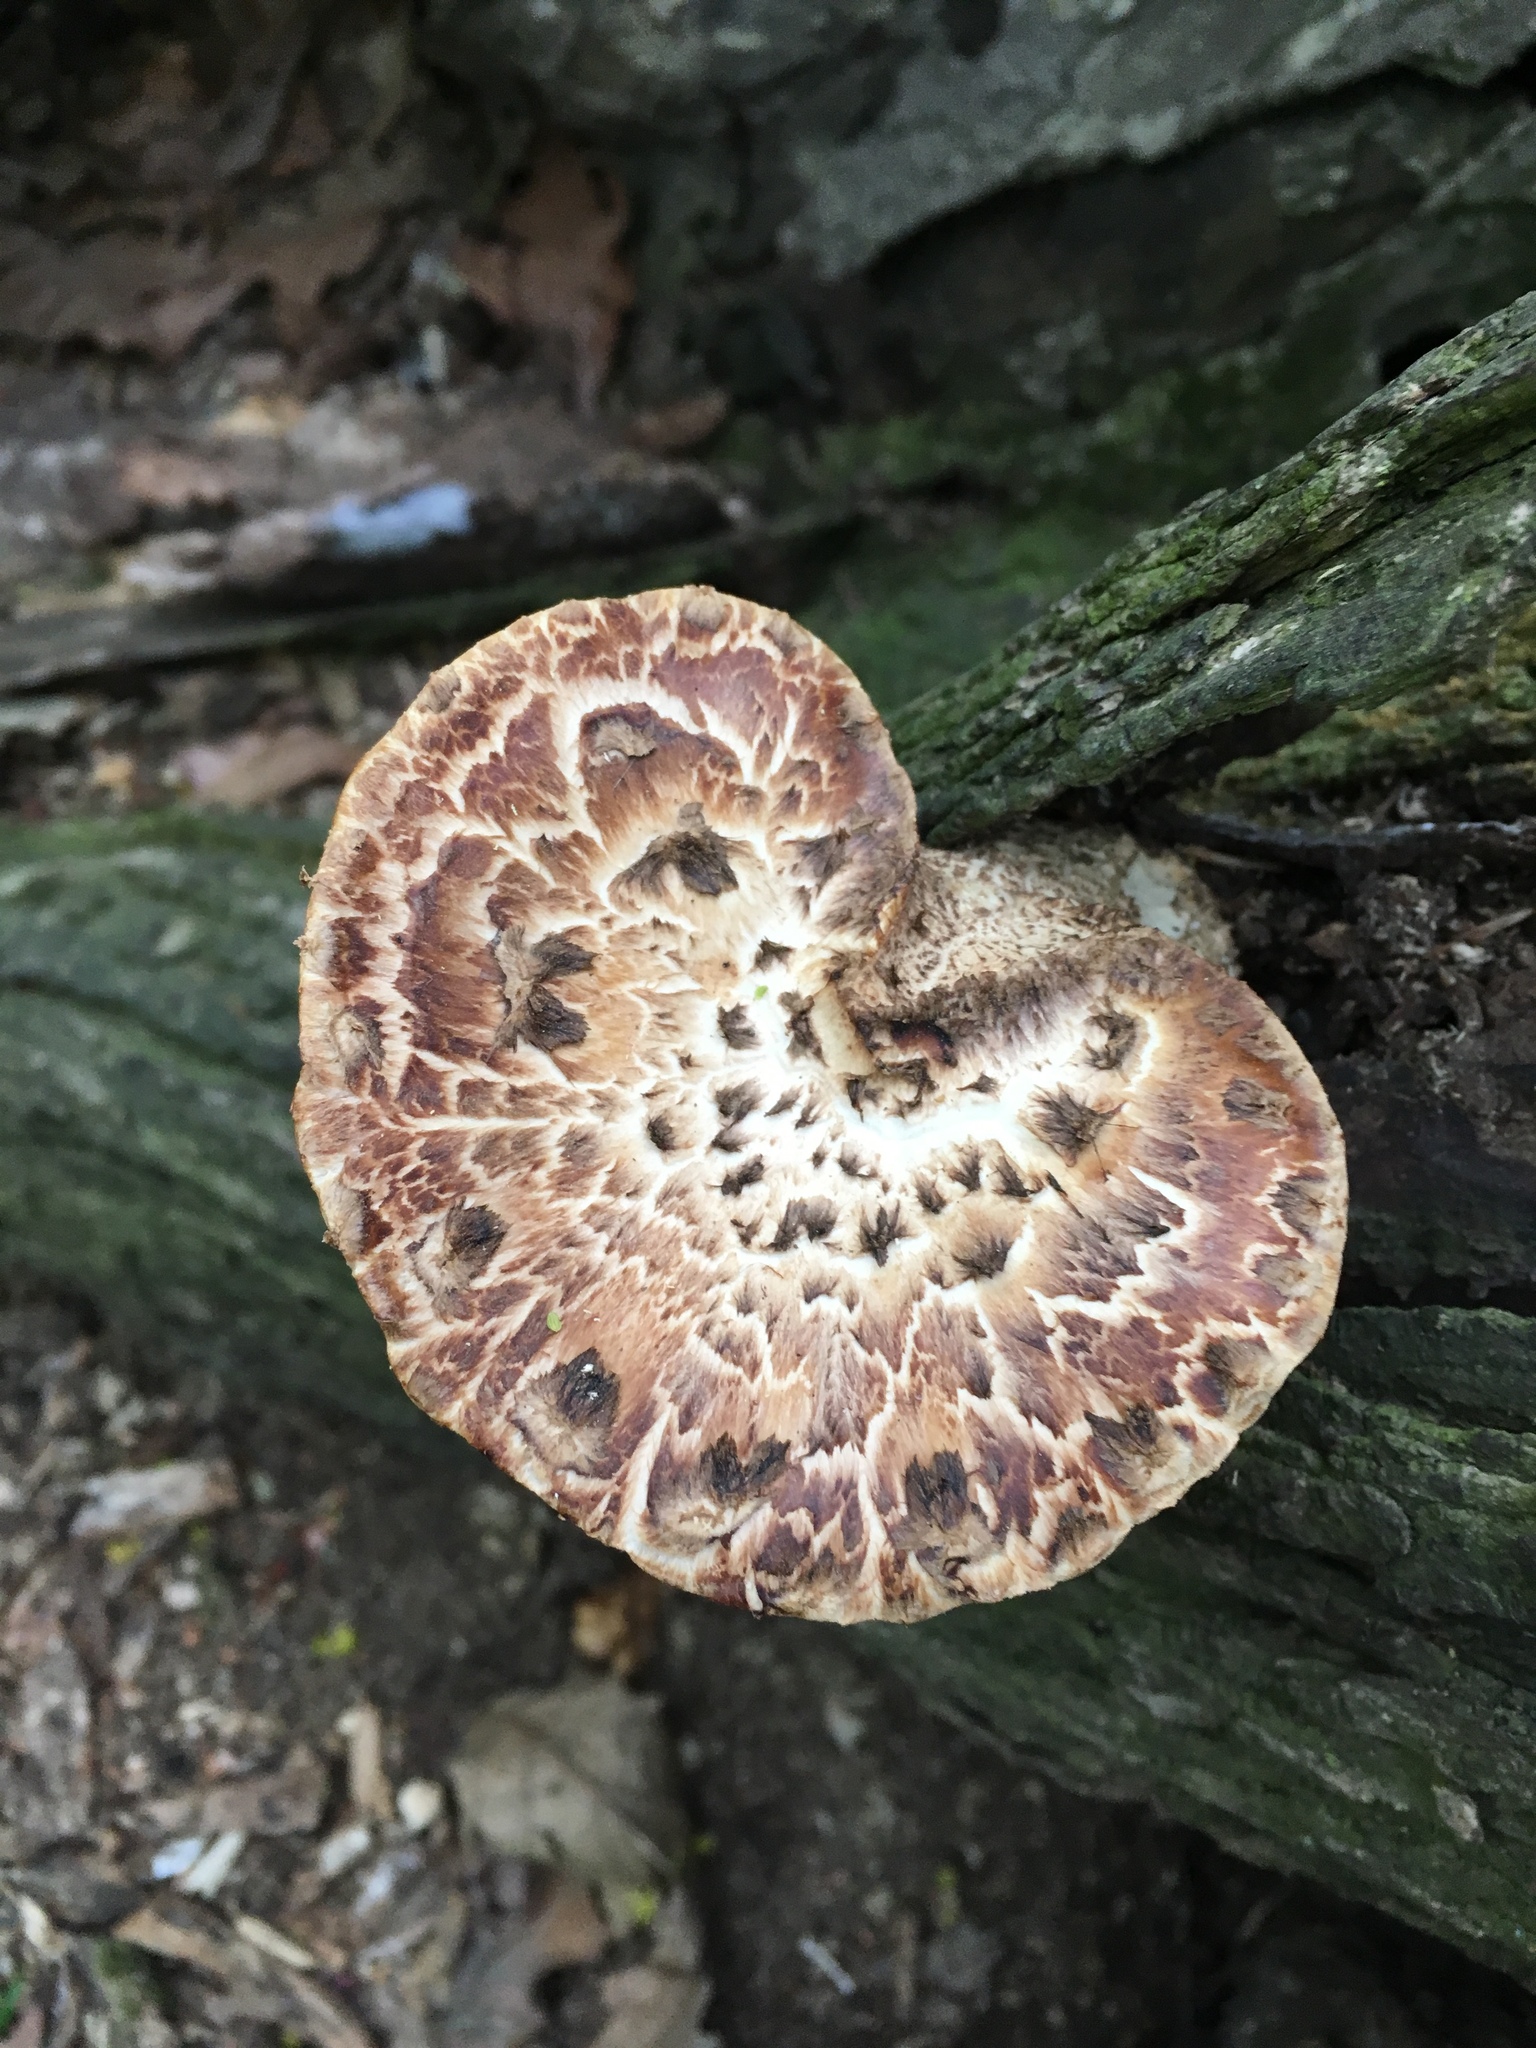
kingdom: Fungi
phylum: Basidiomycota
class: Agaricomycetes
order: Polyporales
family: Polyporaceae
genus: Cerioporus
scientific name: Cerioporus squamosus
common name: Dryad's saddle
